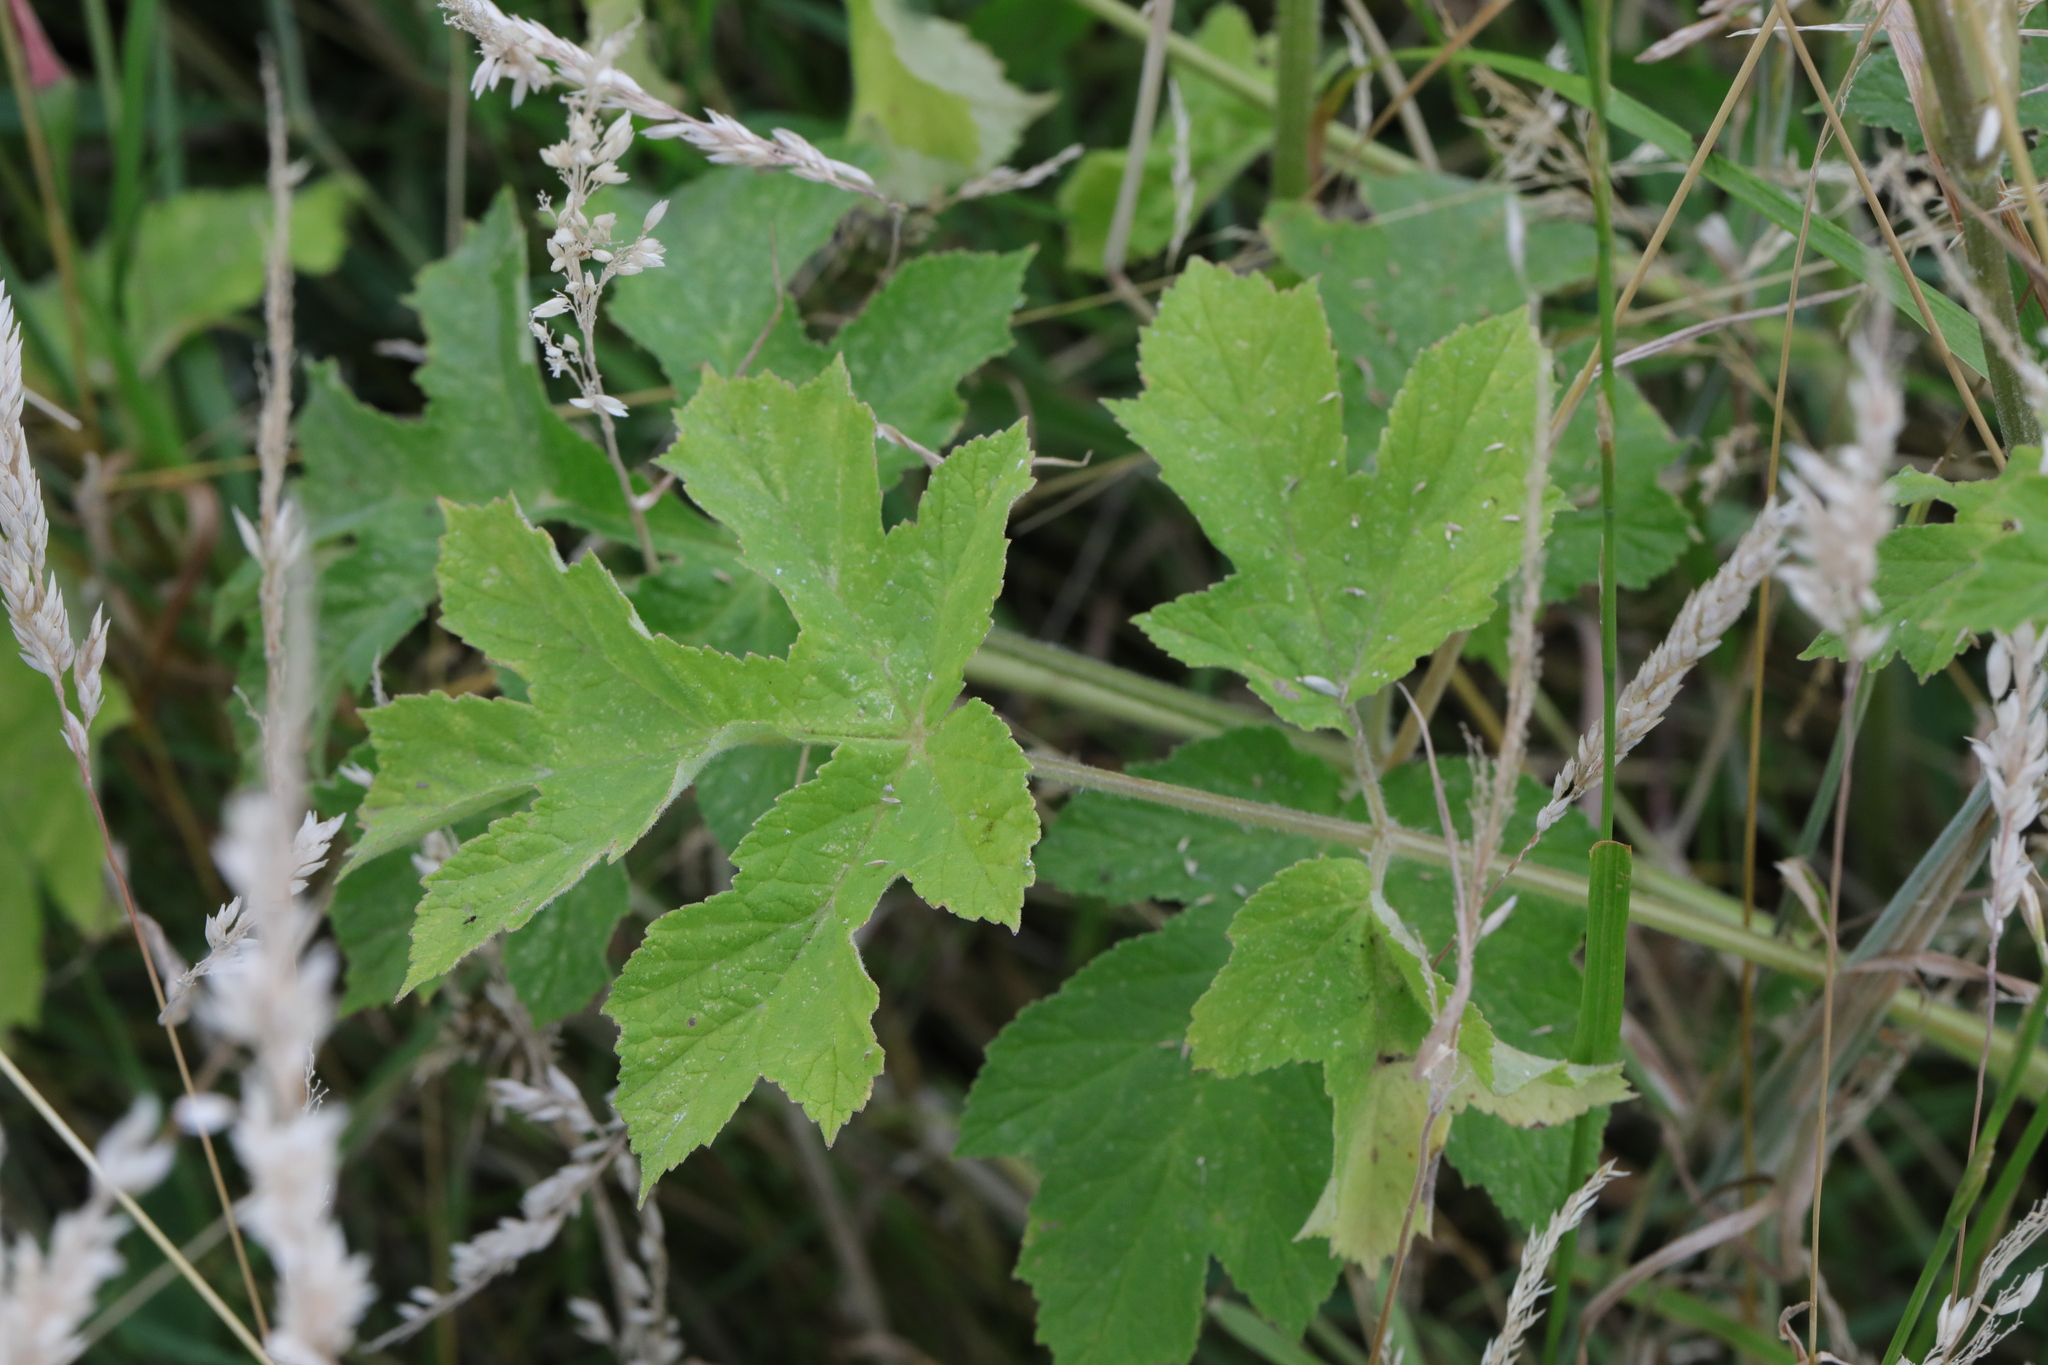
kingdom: Plantae
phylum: Tracheophyta
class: Magnoliopsida
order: Apiales
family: Apiaceae
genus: Heracleum
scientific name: Heracleum sphondylium
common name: Hogweed
